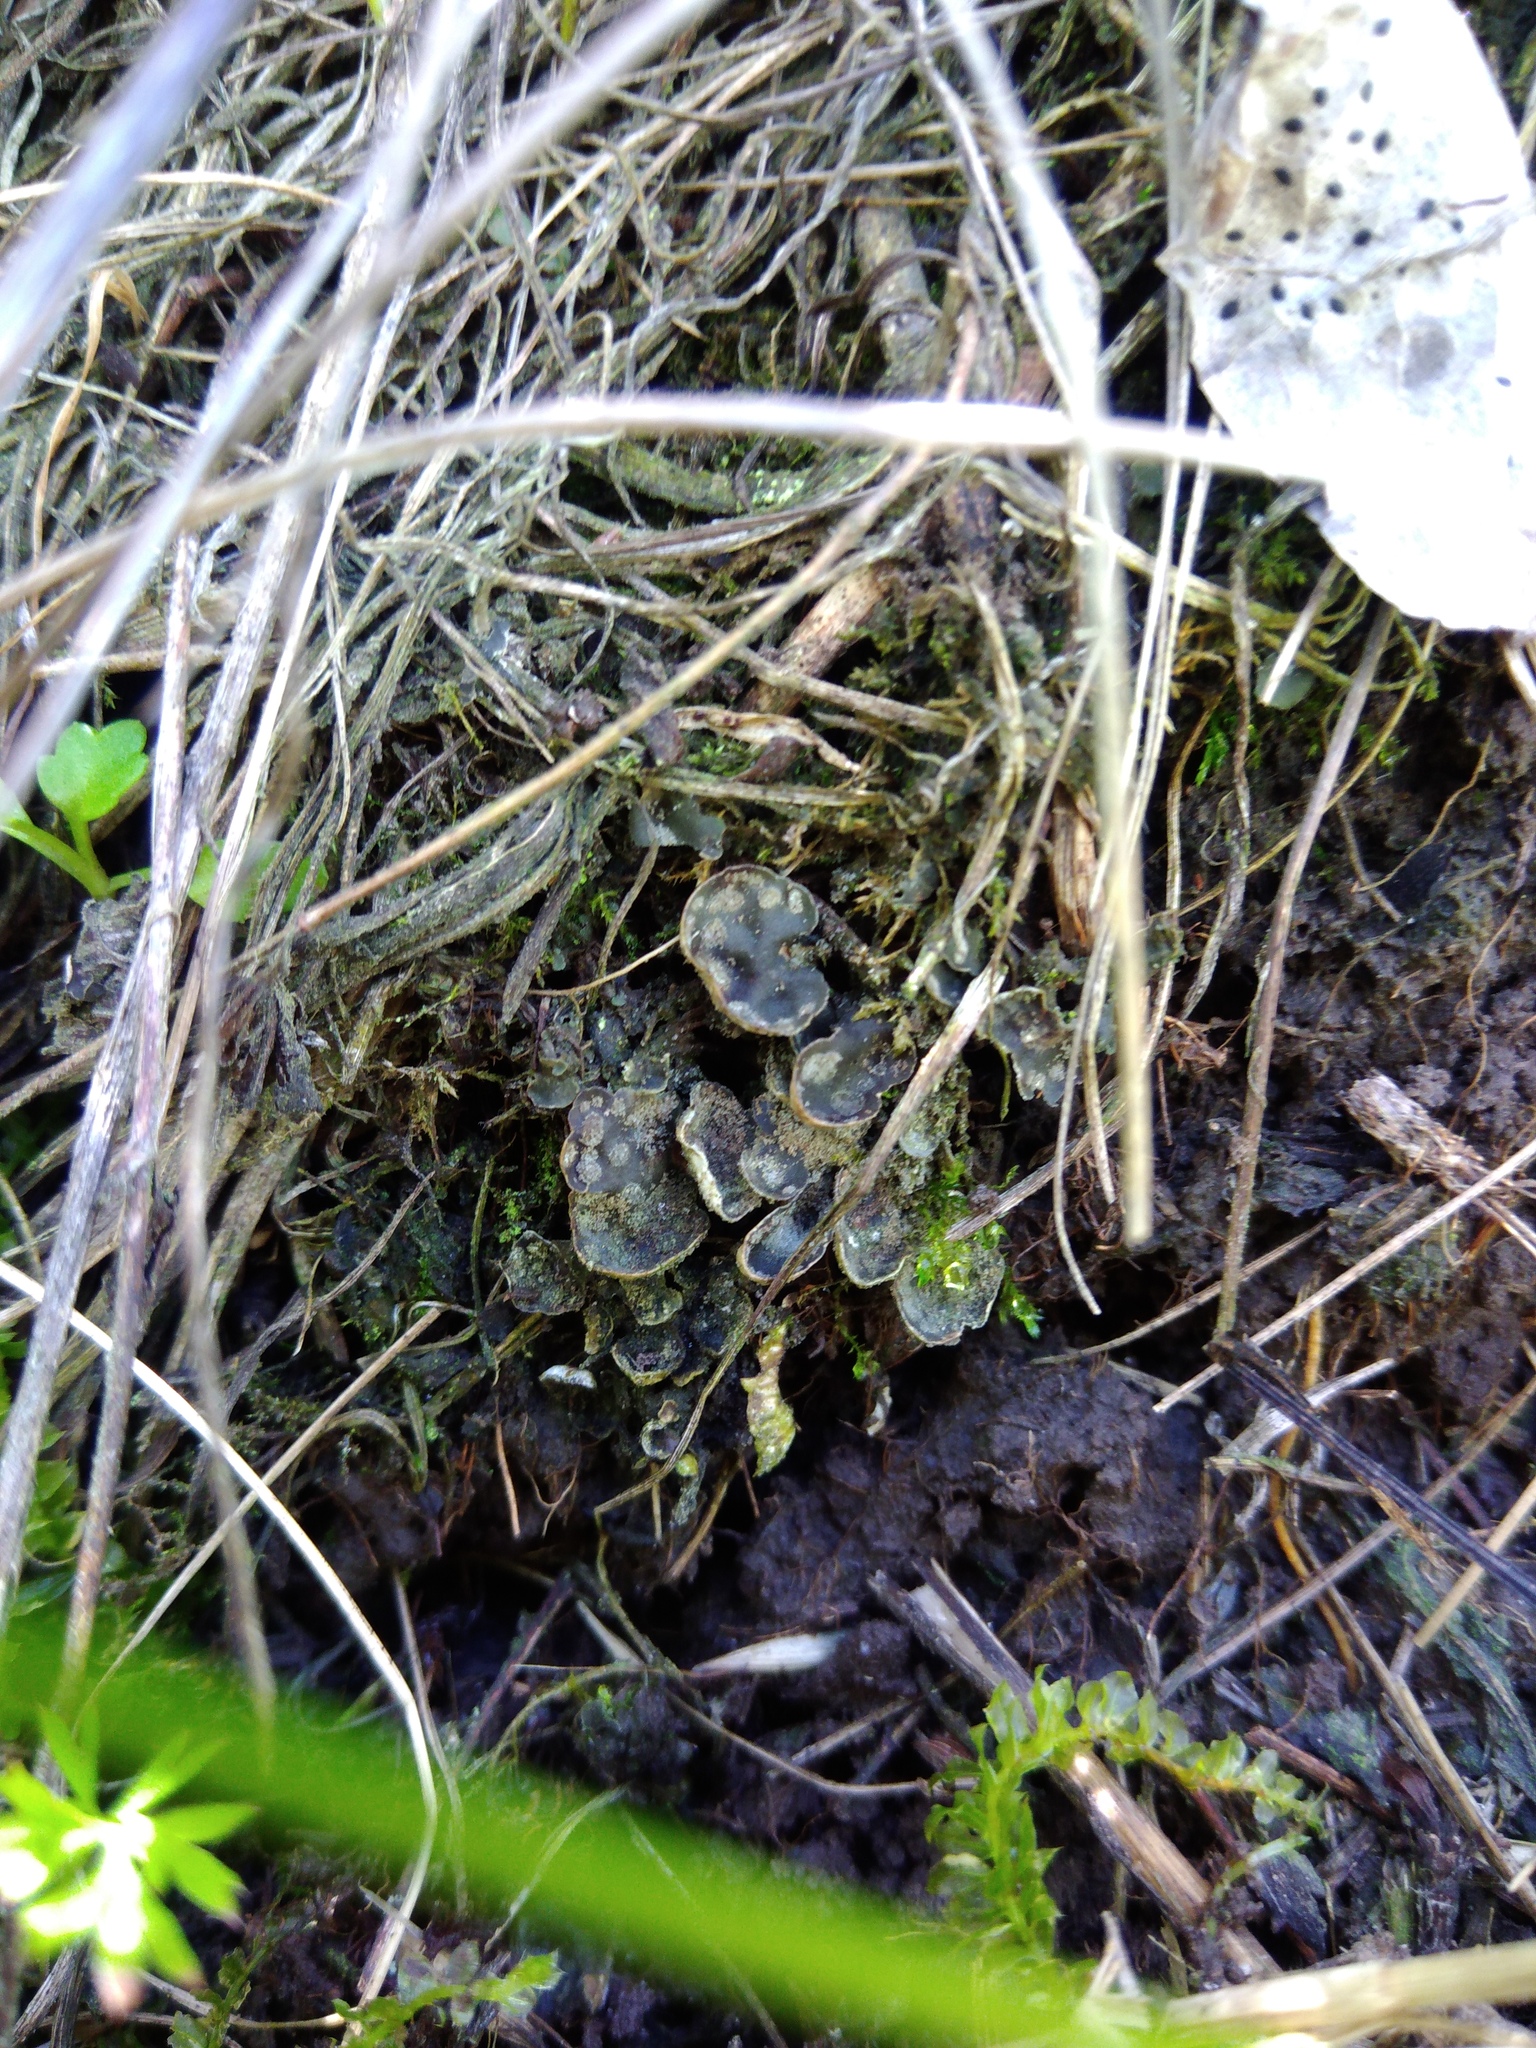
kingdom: Fungi
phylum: Ascomycota
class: Lecanoromycetes
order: Peltigerales
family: Peltigeraceae
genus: Peltigera
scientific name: Peltigera didactyla
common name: Alternating dog lichen
